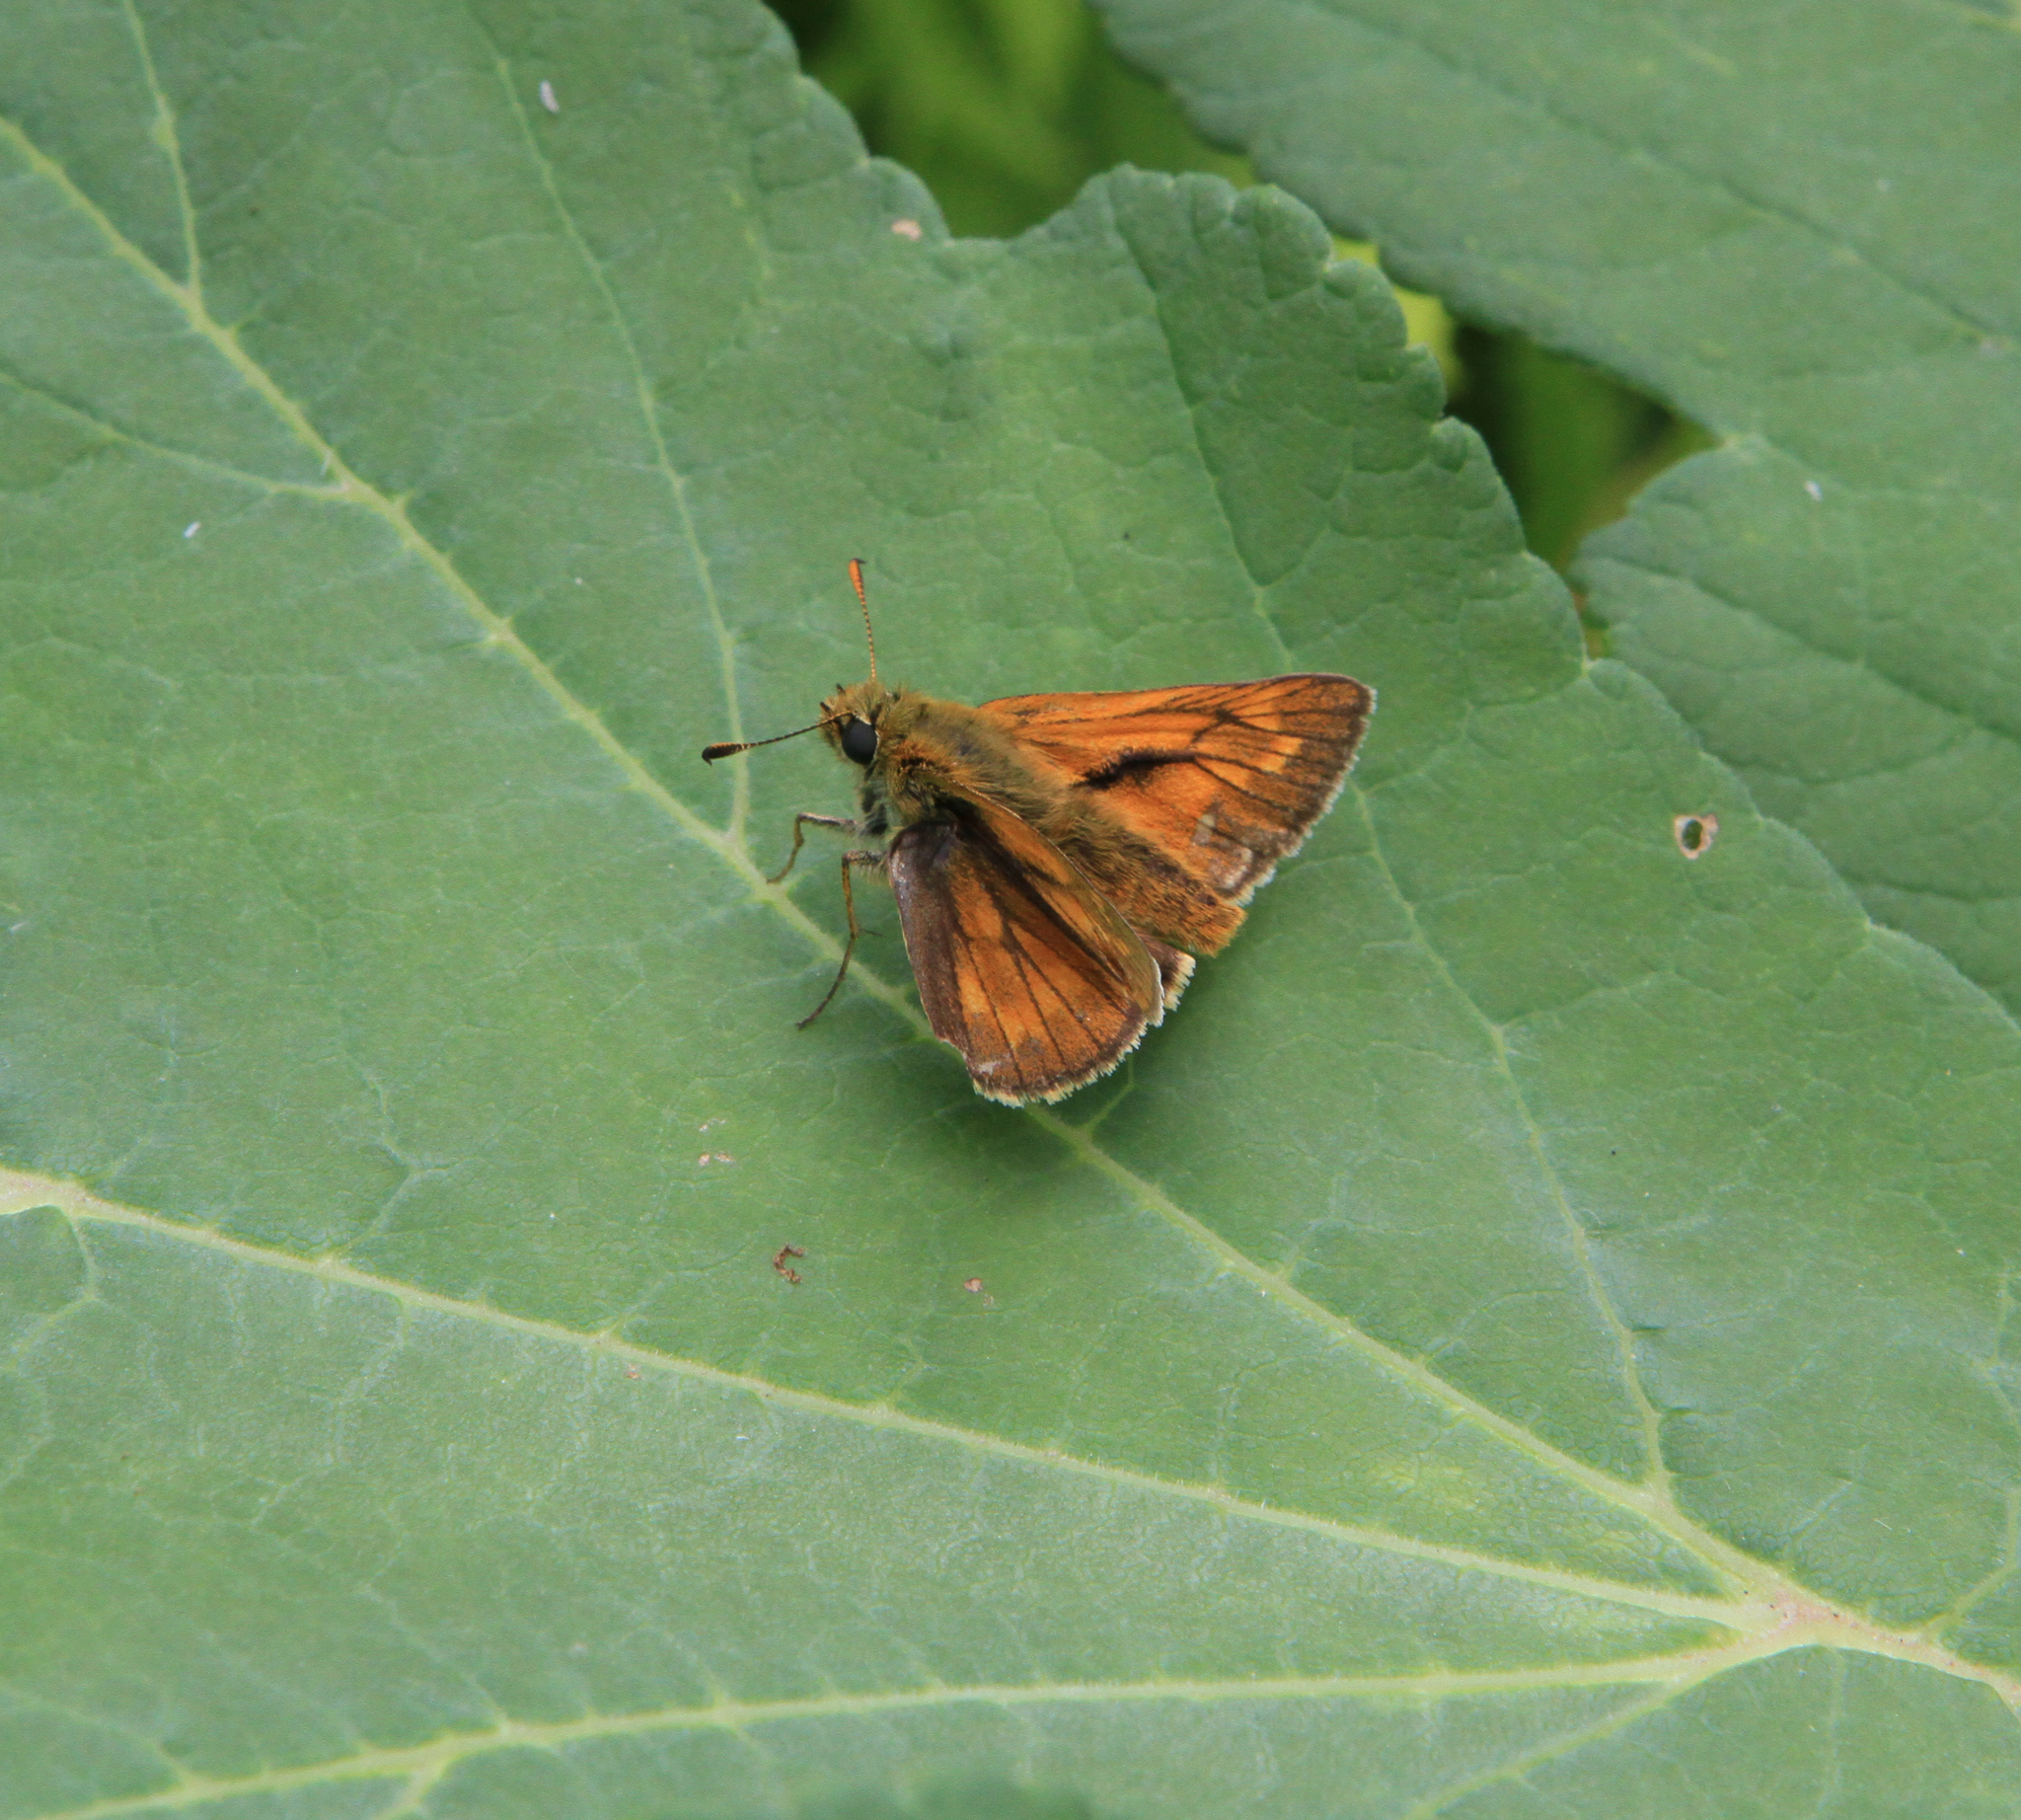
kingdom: Animalia
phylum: Arthropoda
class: Insecta
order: Lepidoptera
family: Hesperiidae
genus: Ochlodes
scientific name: Ochlodes venata
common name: Large skipper
